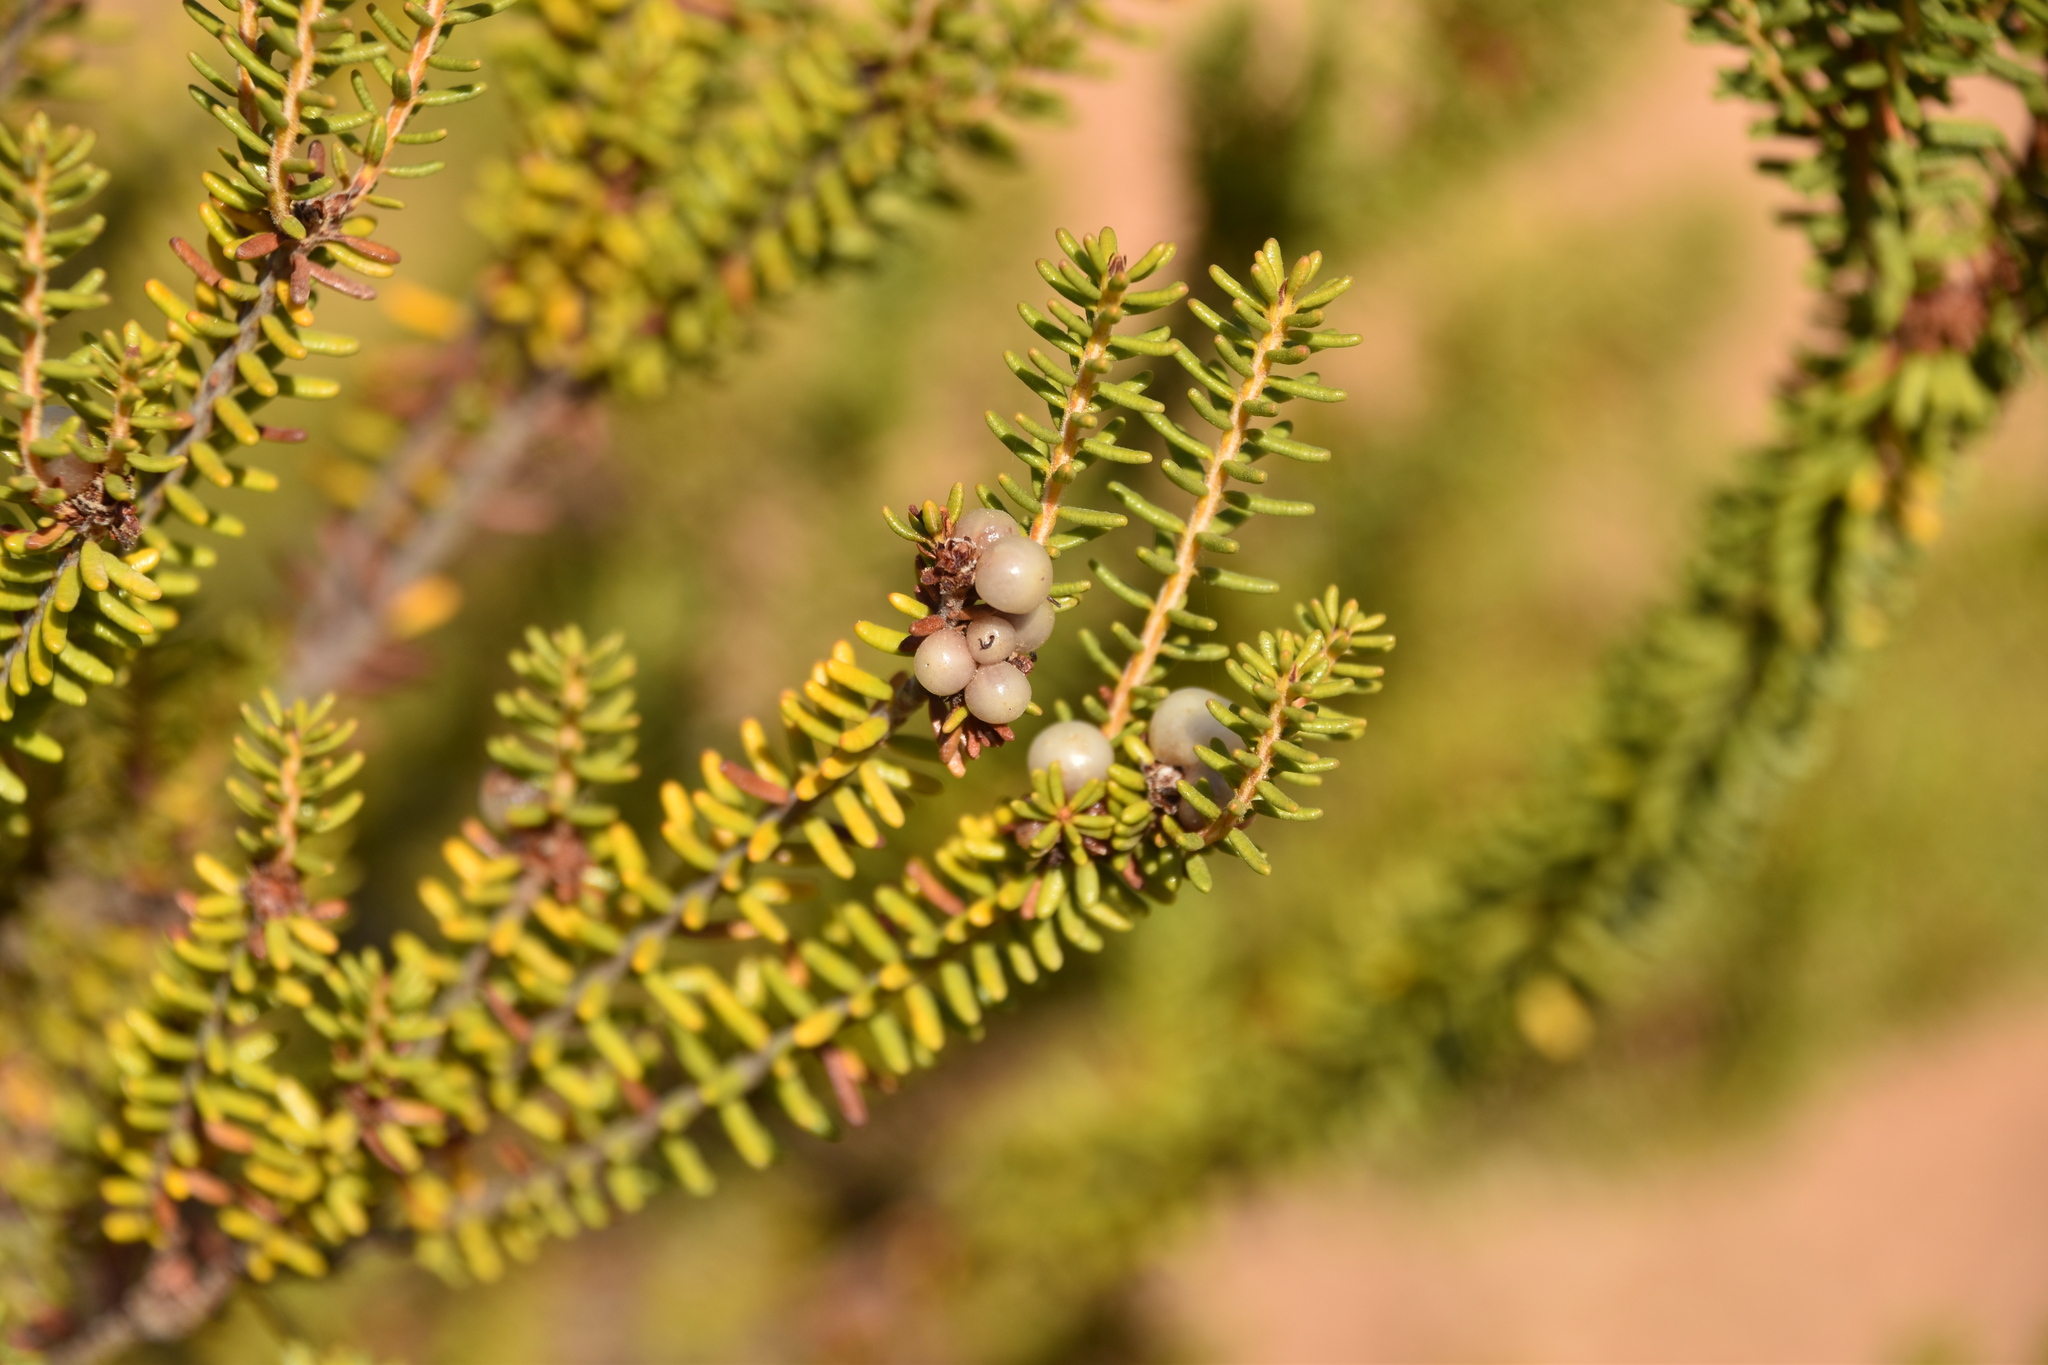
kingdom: Plantae
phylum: Tracheophyta
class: Magnoliopsida
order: Ericales
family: Ericaceae
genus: Corema
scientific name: Corema album
